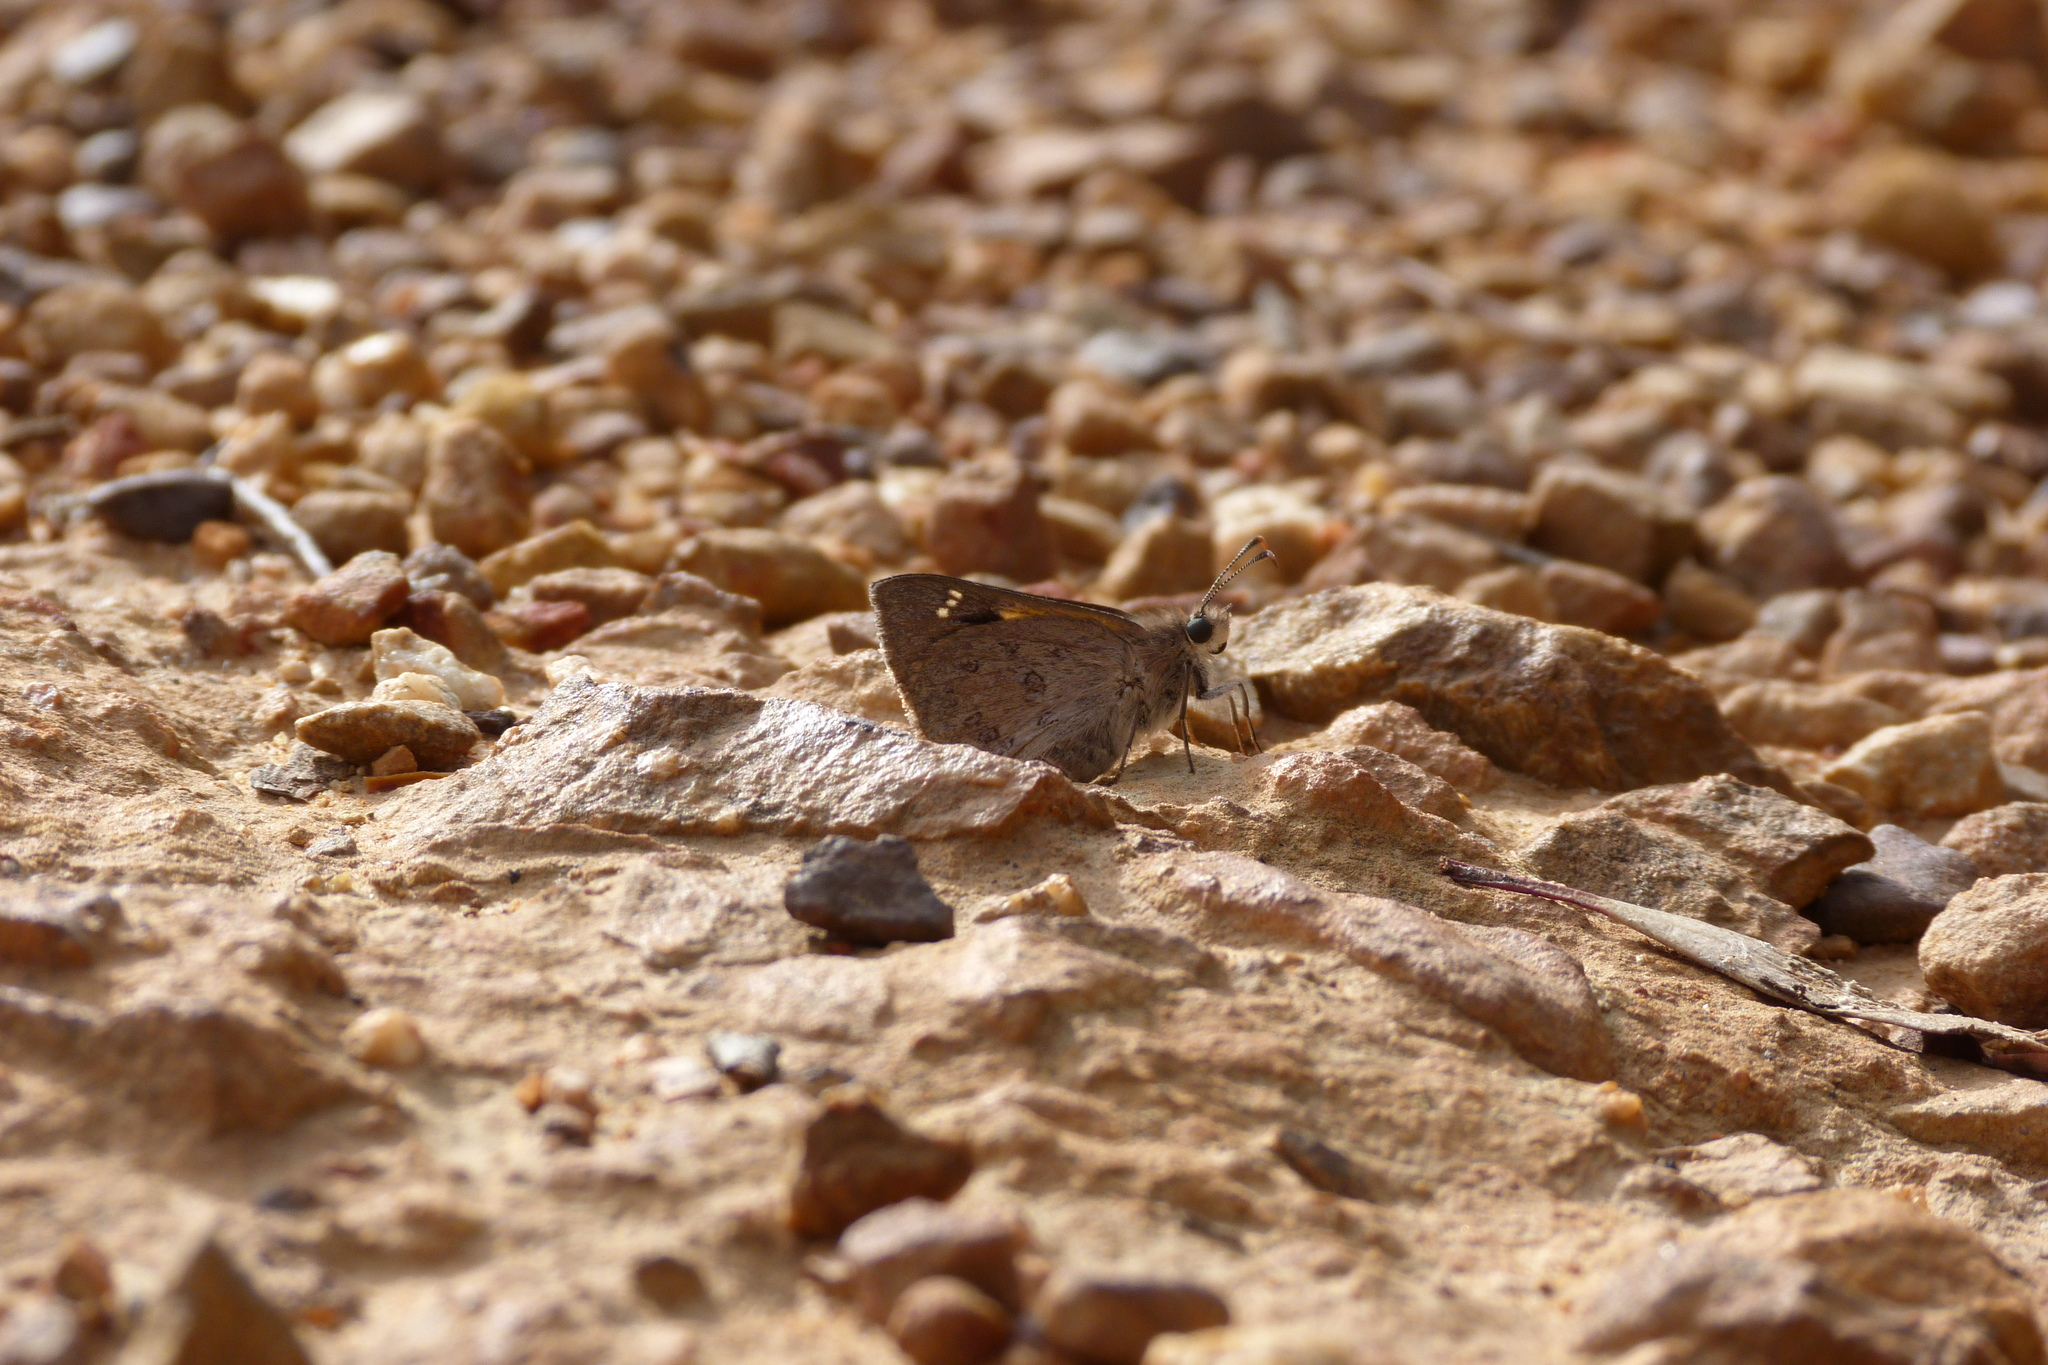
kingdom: Animalia
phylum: Arthropoda
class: Insecta
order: Lepidoptera
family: Hesperiidae
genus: Trapezites
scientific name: Trapezites phigalia
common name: Heath ochre
